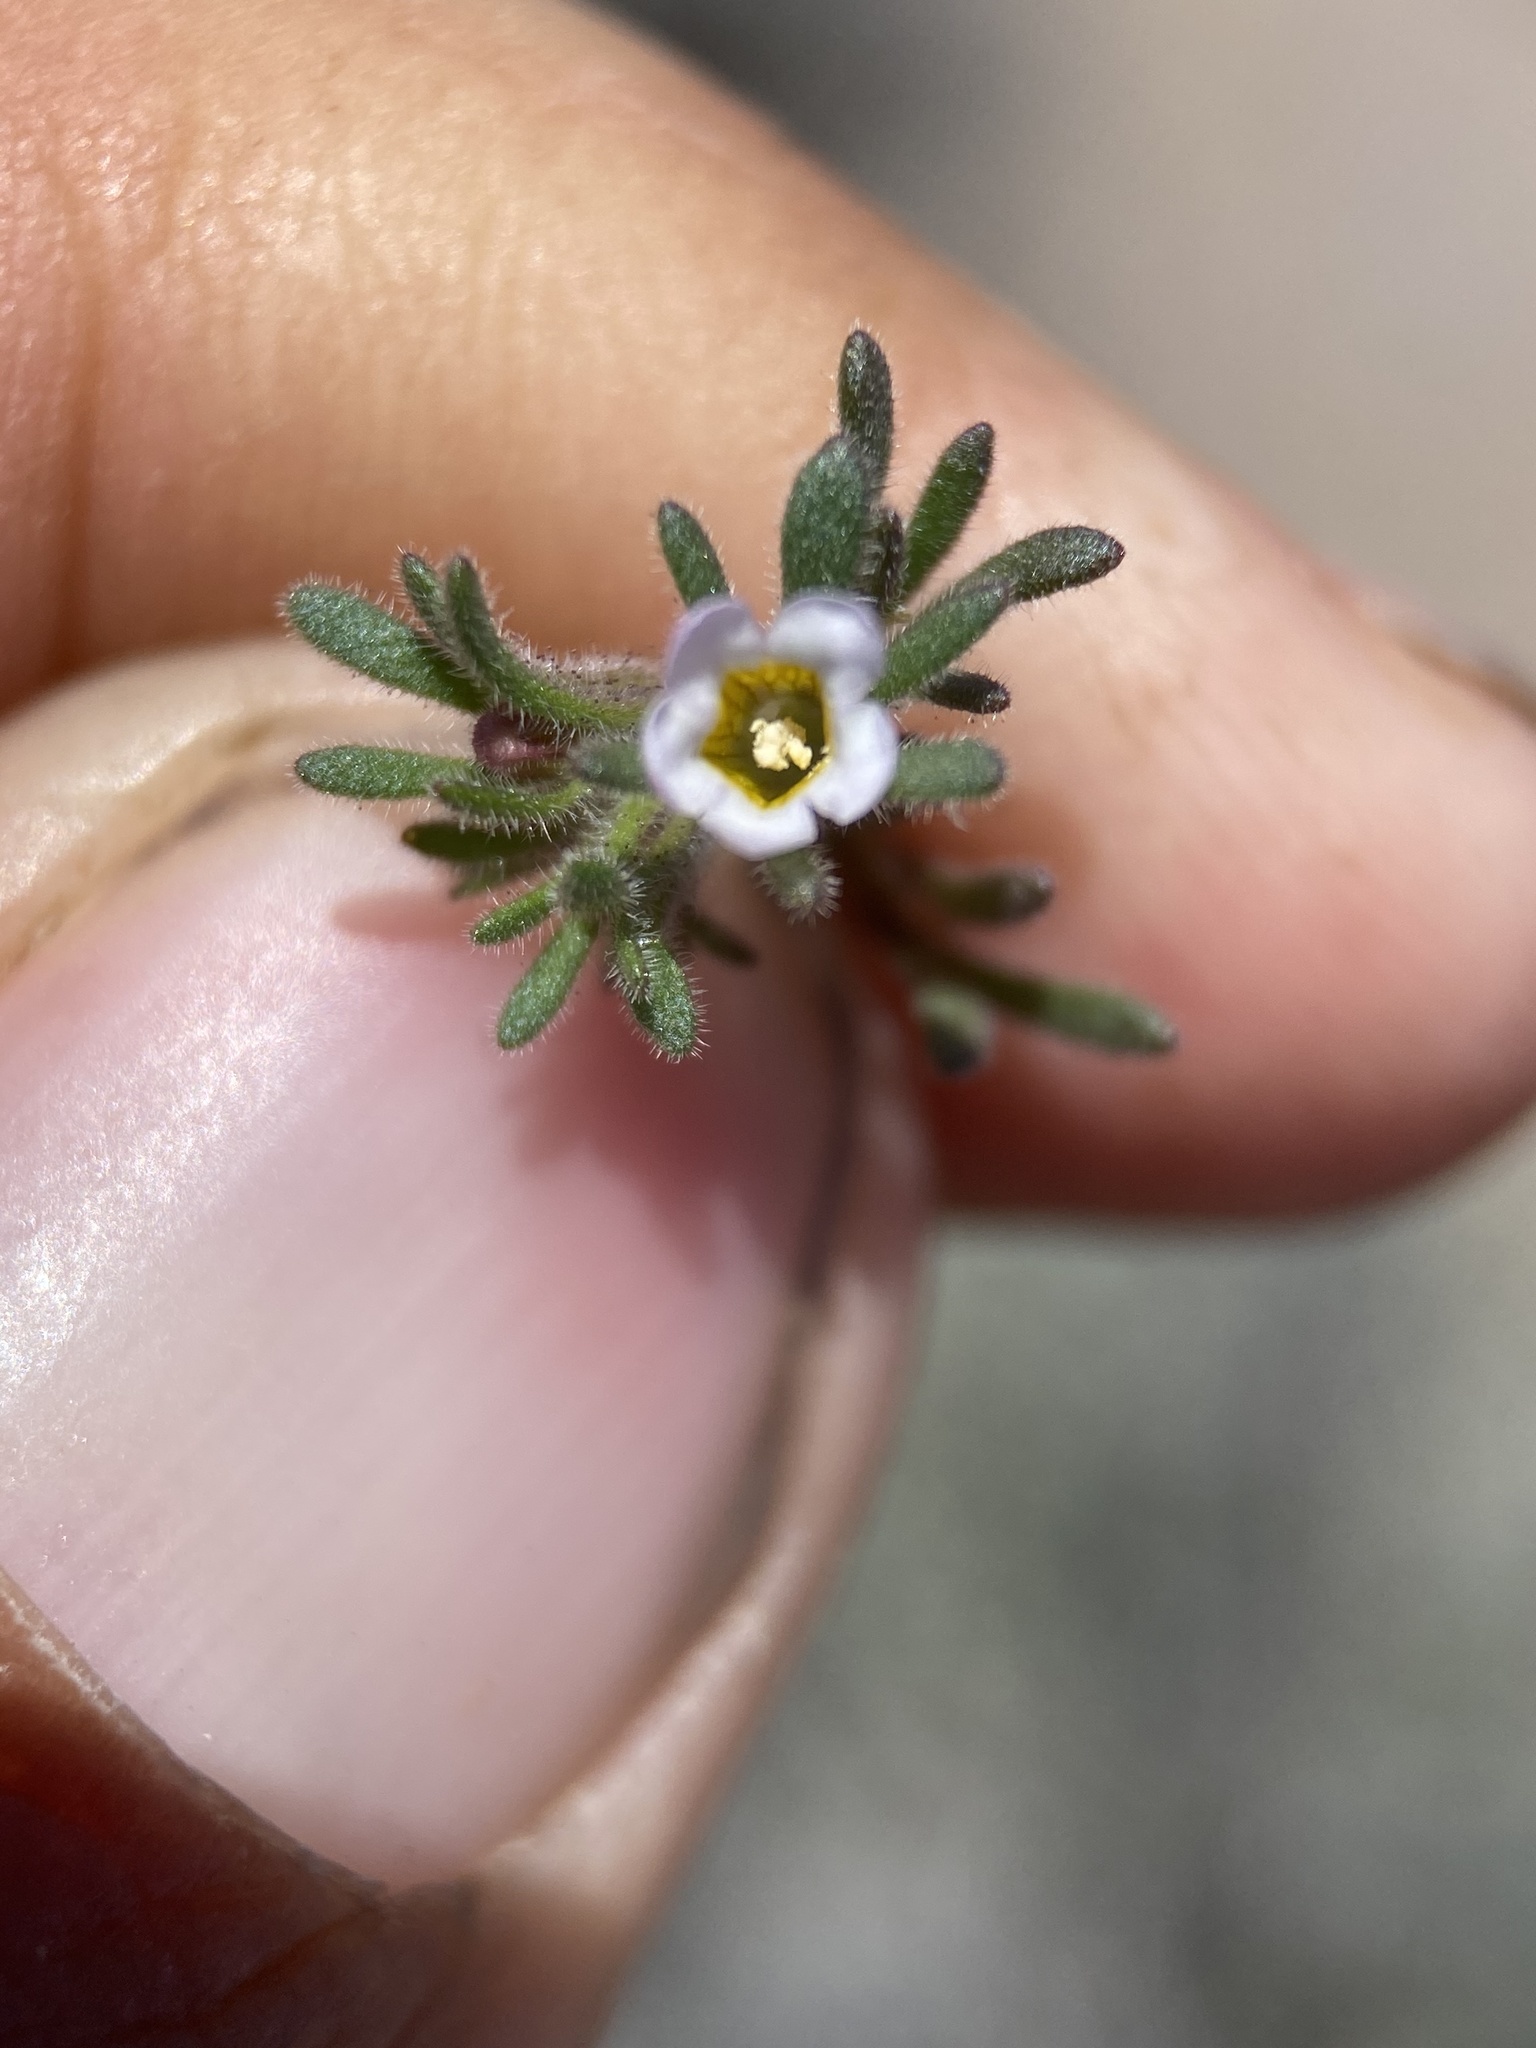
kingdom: Plantae
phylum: Tracheophyta
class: Magnoliopsida
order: Boraginales
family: Hydrophyllaceae
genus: Phacelia
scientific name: Phacelia ivesiana
